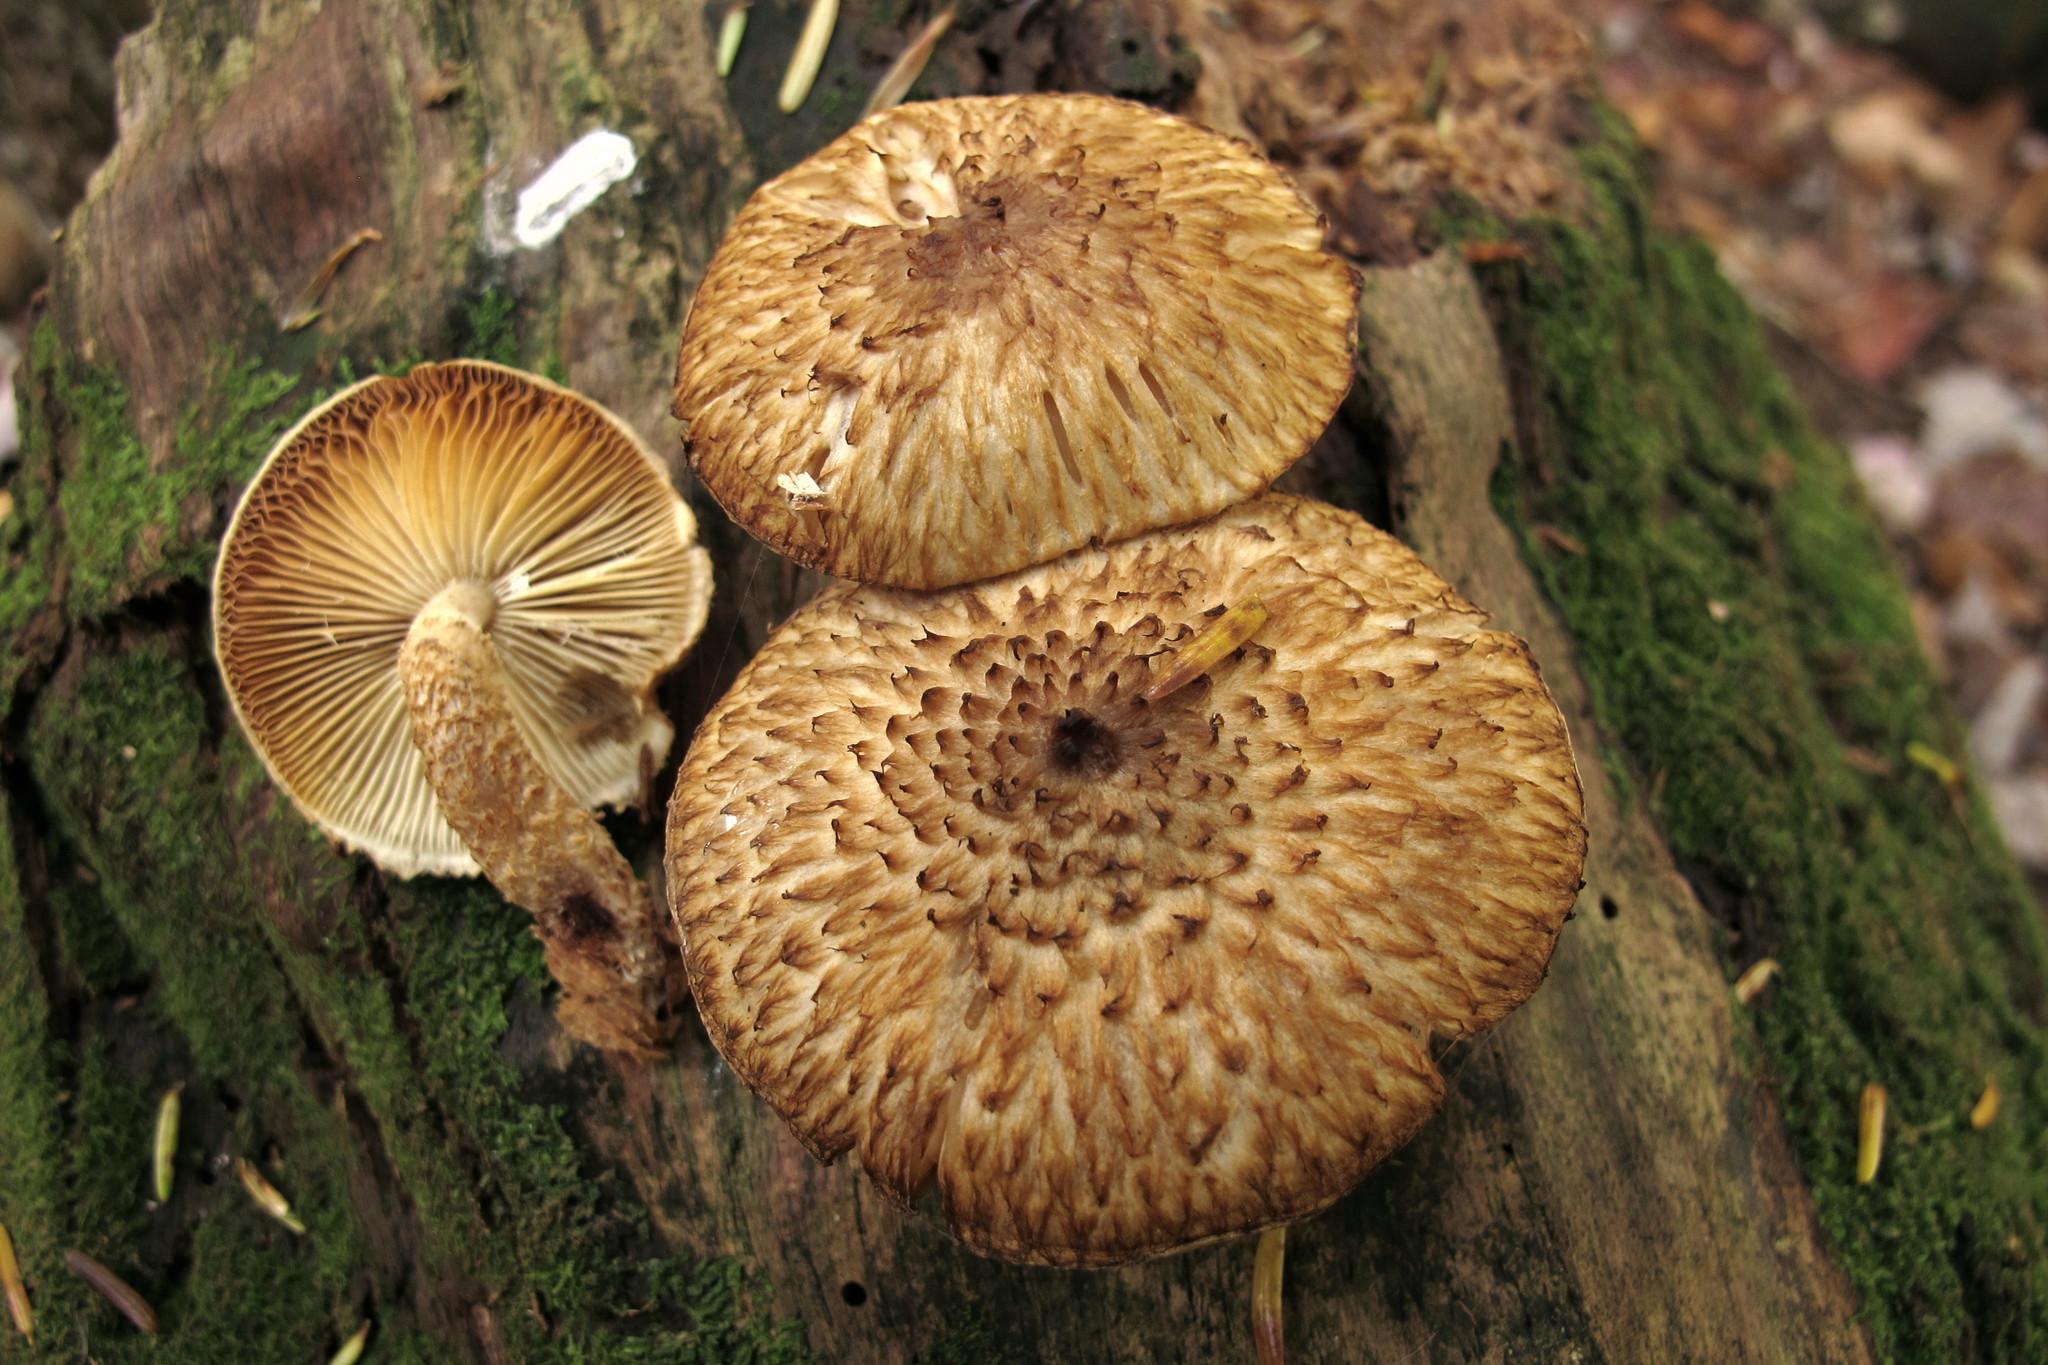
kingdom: Fungi
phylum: Basidiomycota
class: Agaricomycetes
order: Agaricales
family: Agaricaceae
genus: Leucopholiota
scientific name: Leucopholiota decorosa
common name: Decorated pholiota
